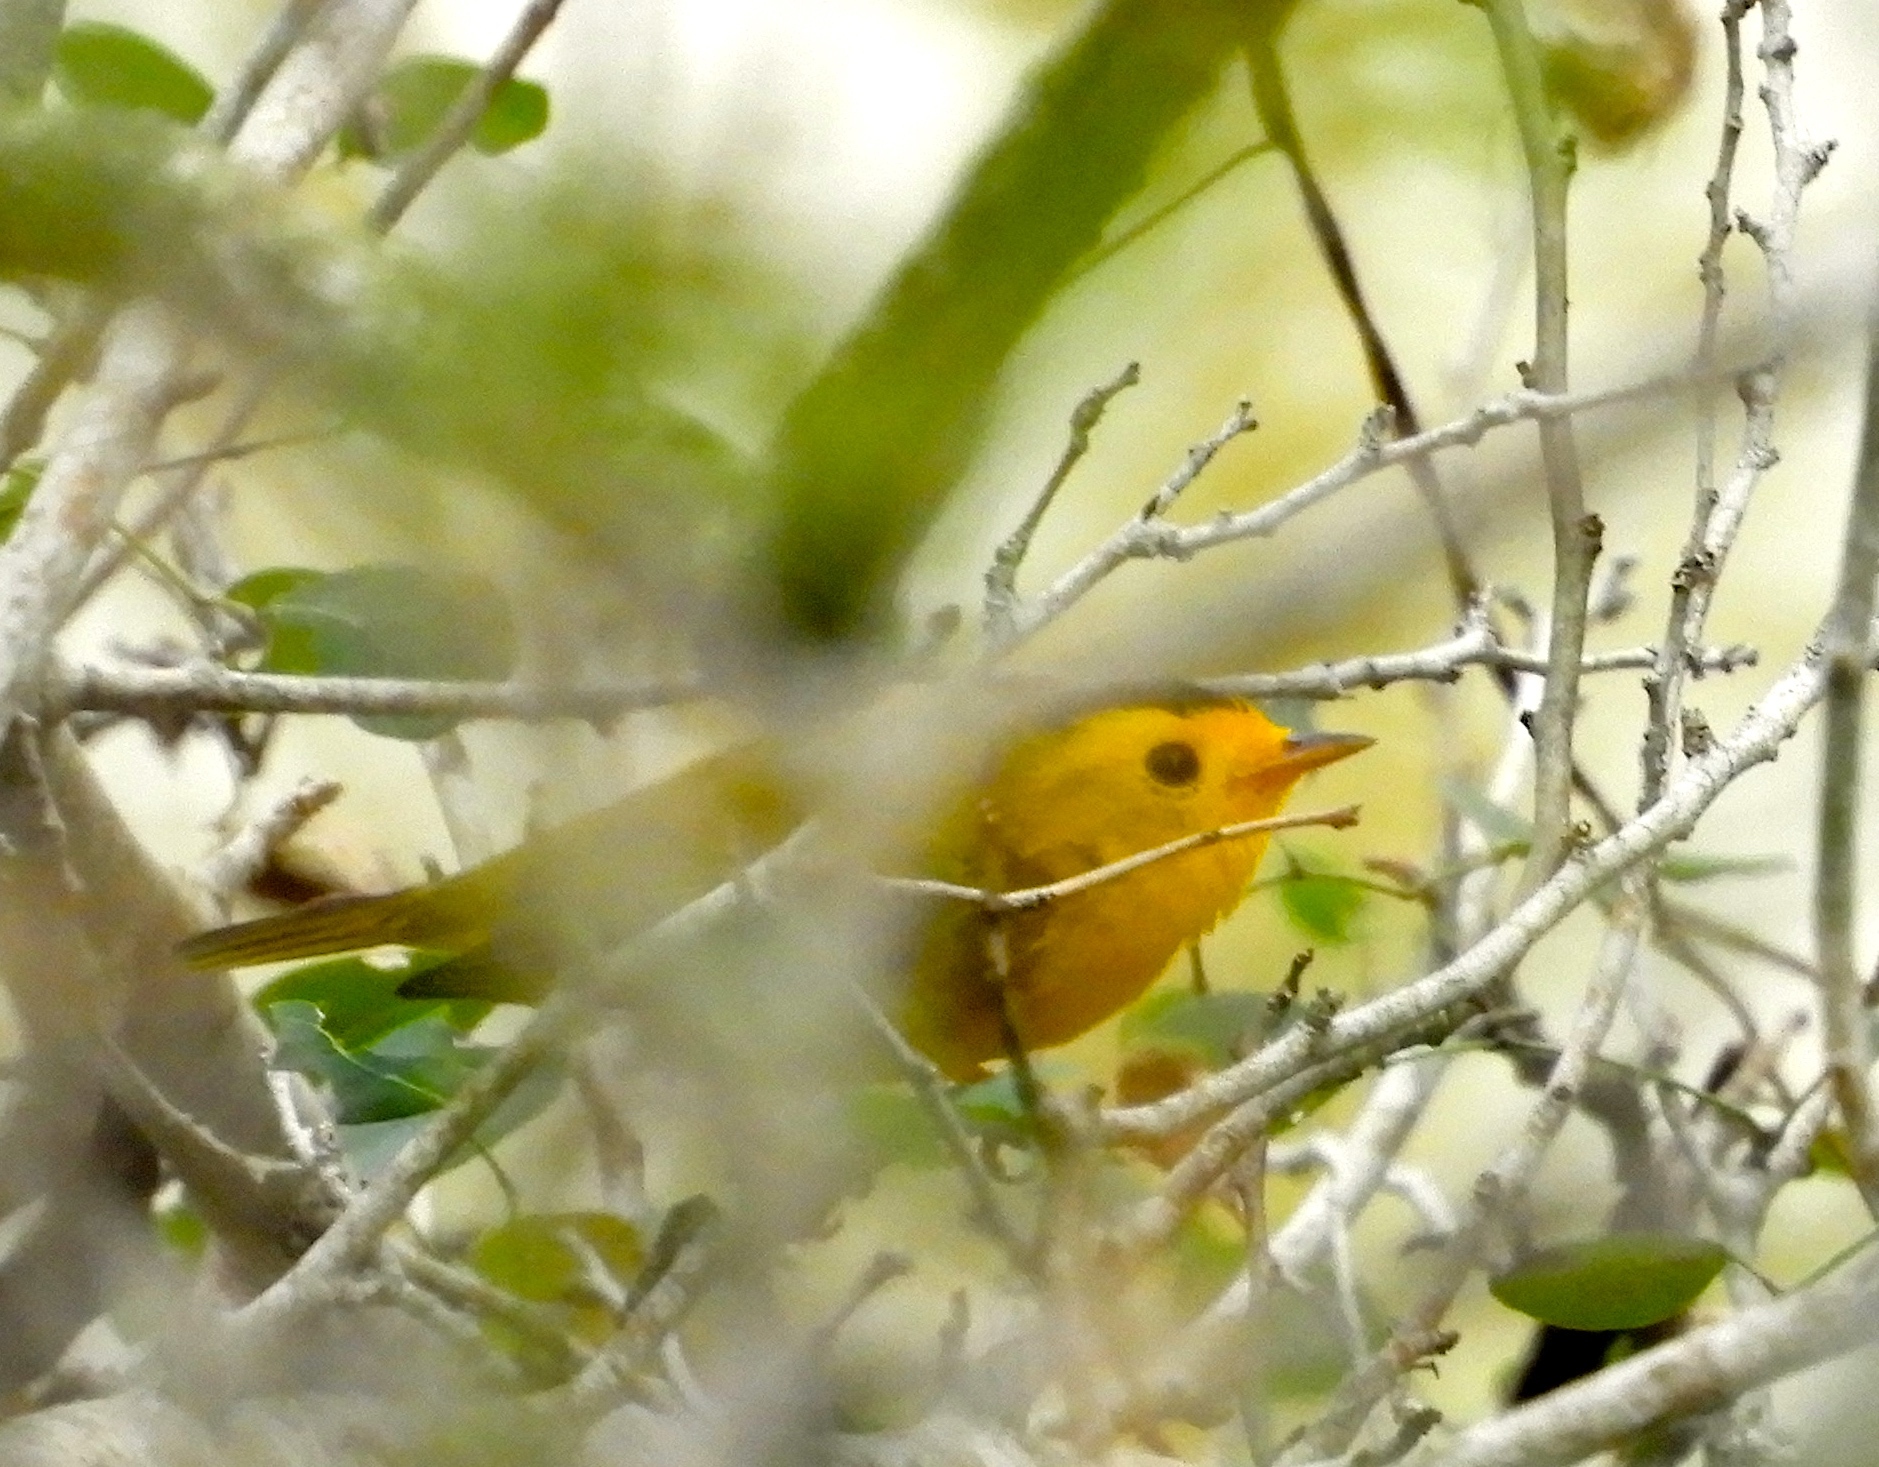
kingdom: Animalia
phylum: Chordata
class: Aves
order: Passeriformes
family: Parulidae
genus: Cardellina
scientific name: Cardellina pusilla
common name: Wilson's warbler
